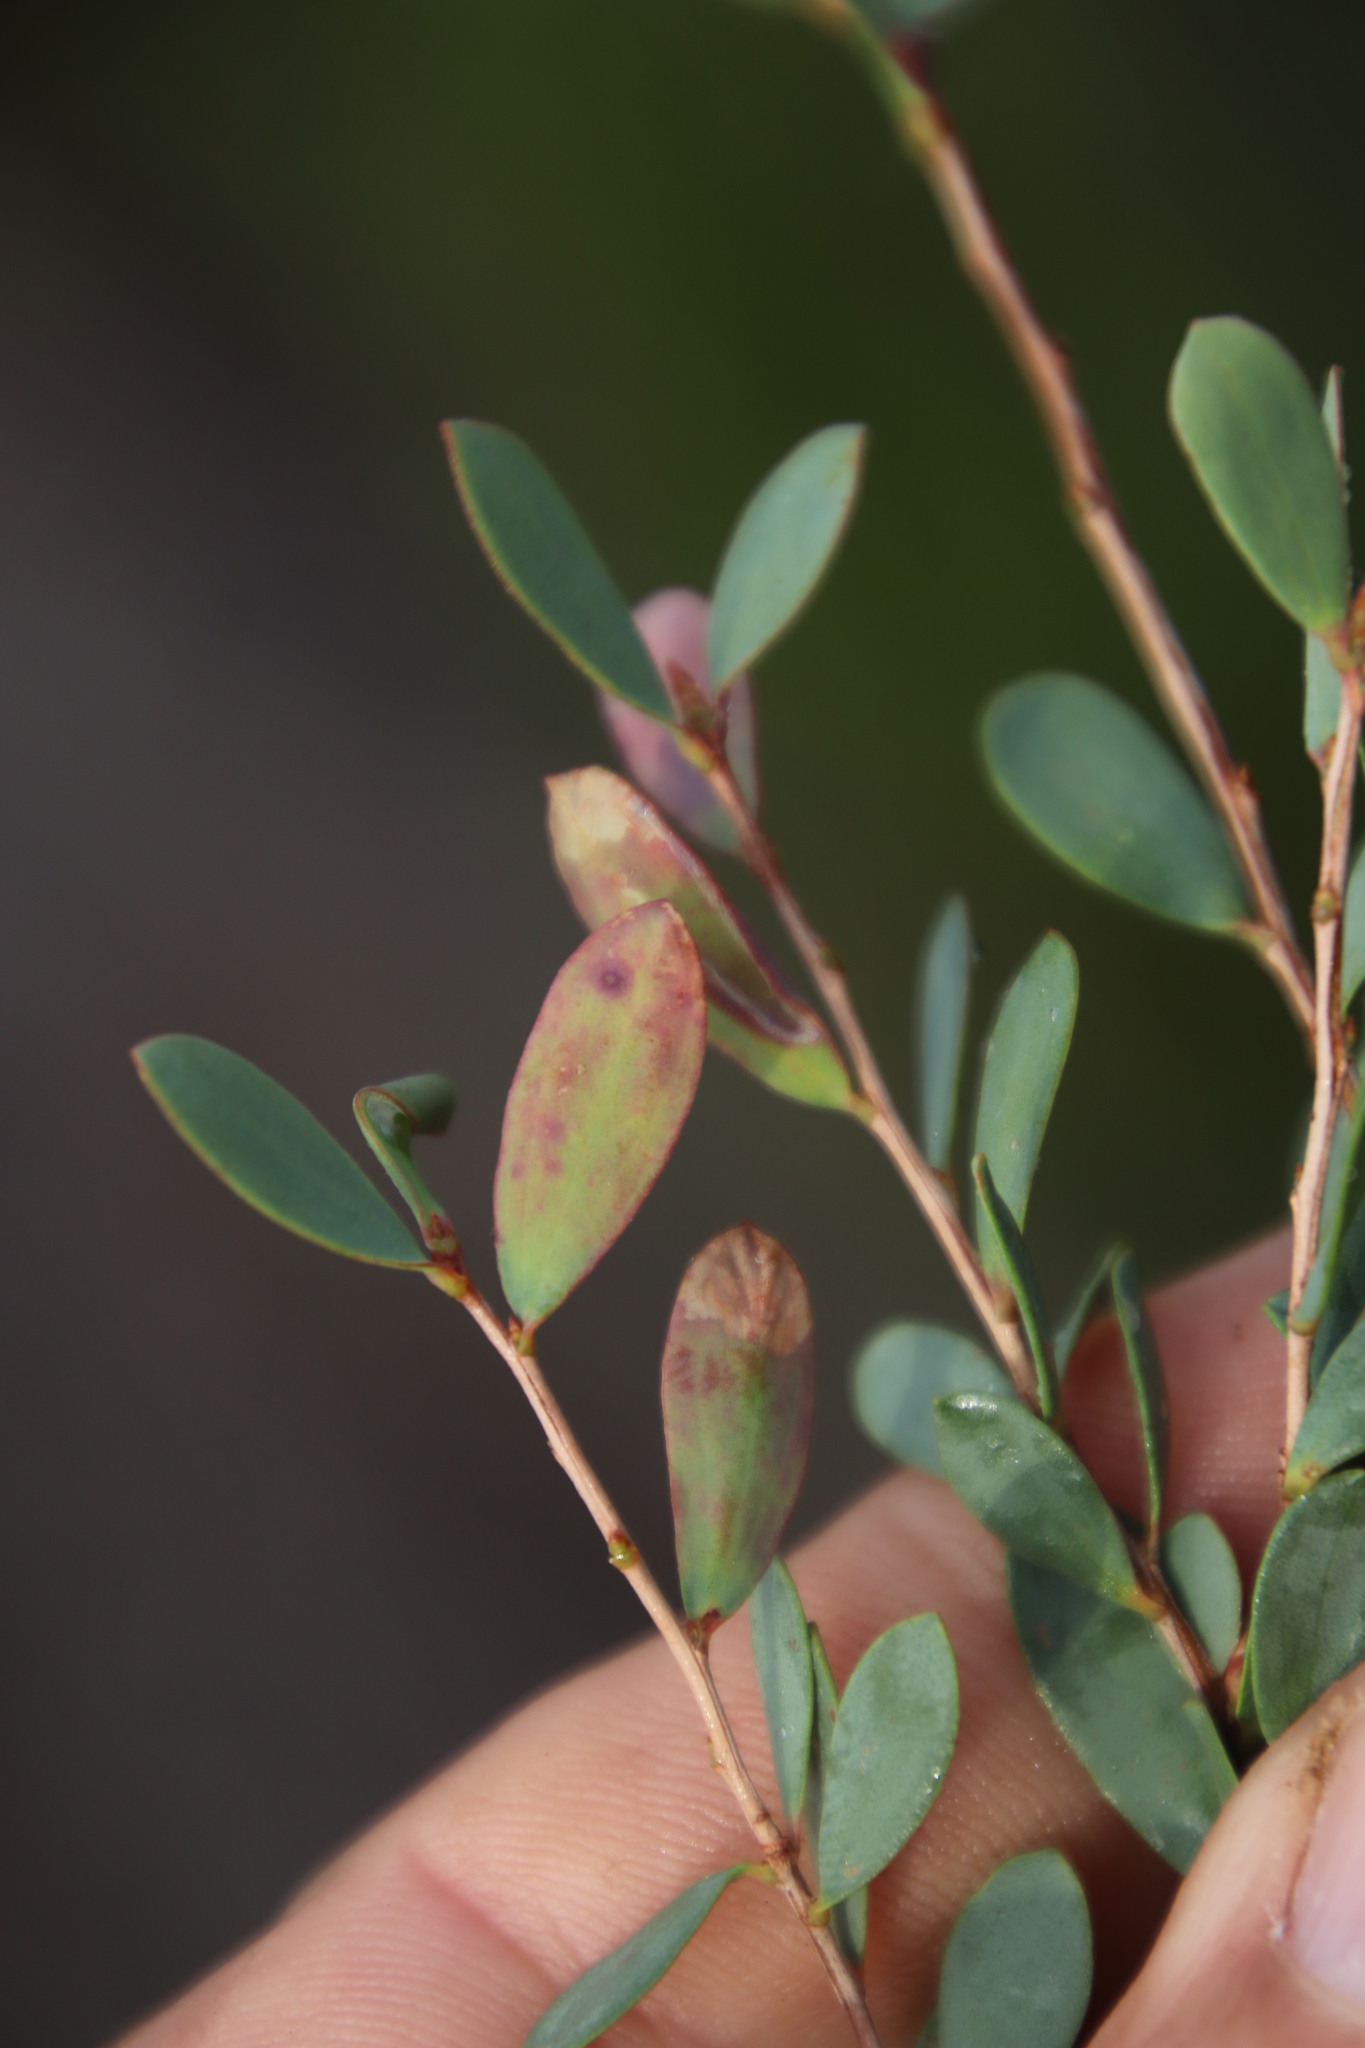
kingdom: Animalia
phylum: Arthropoda
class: Insecta
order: Lepidoptera
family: Gracillariidae
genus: Aristaea
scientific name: Aristaea thalassias
